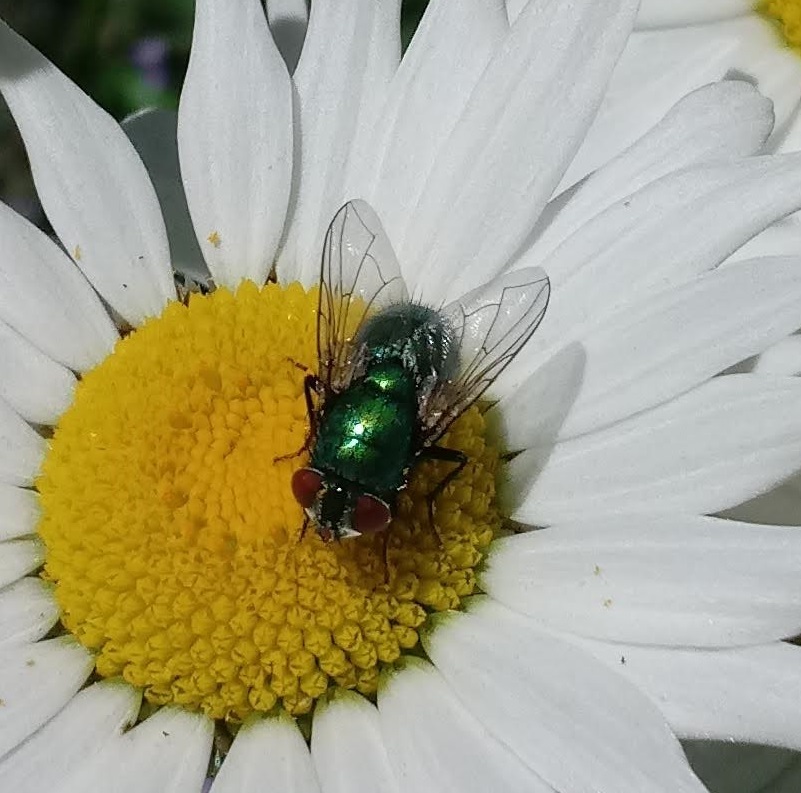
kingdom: Animalia
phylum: Arthropoda
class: Insecta
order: Diptera
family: Calliphoridae
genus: Lucilia
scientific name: Lucilia sericata
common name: Blow fly
